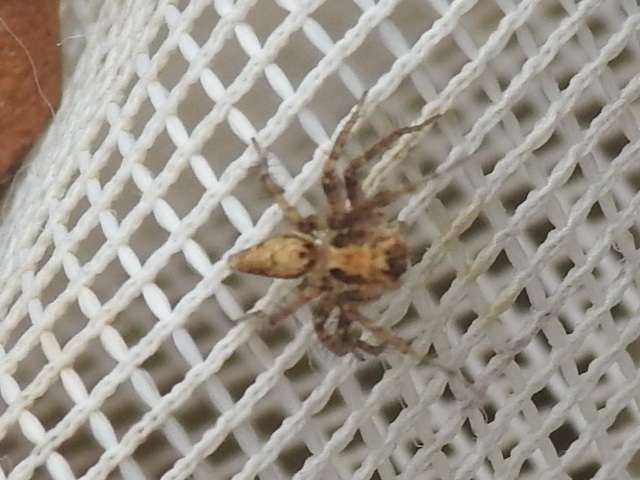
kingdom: Animalia
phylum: Arthropoda
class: Arachnida
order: Araneae
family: Oxyopidae
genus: Oxyopes
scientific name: Oxyopes scalaris
